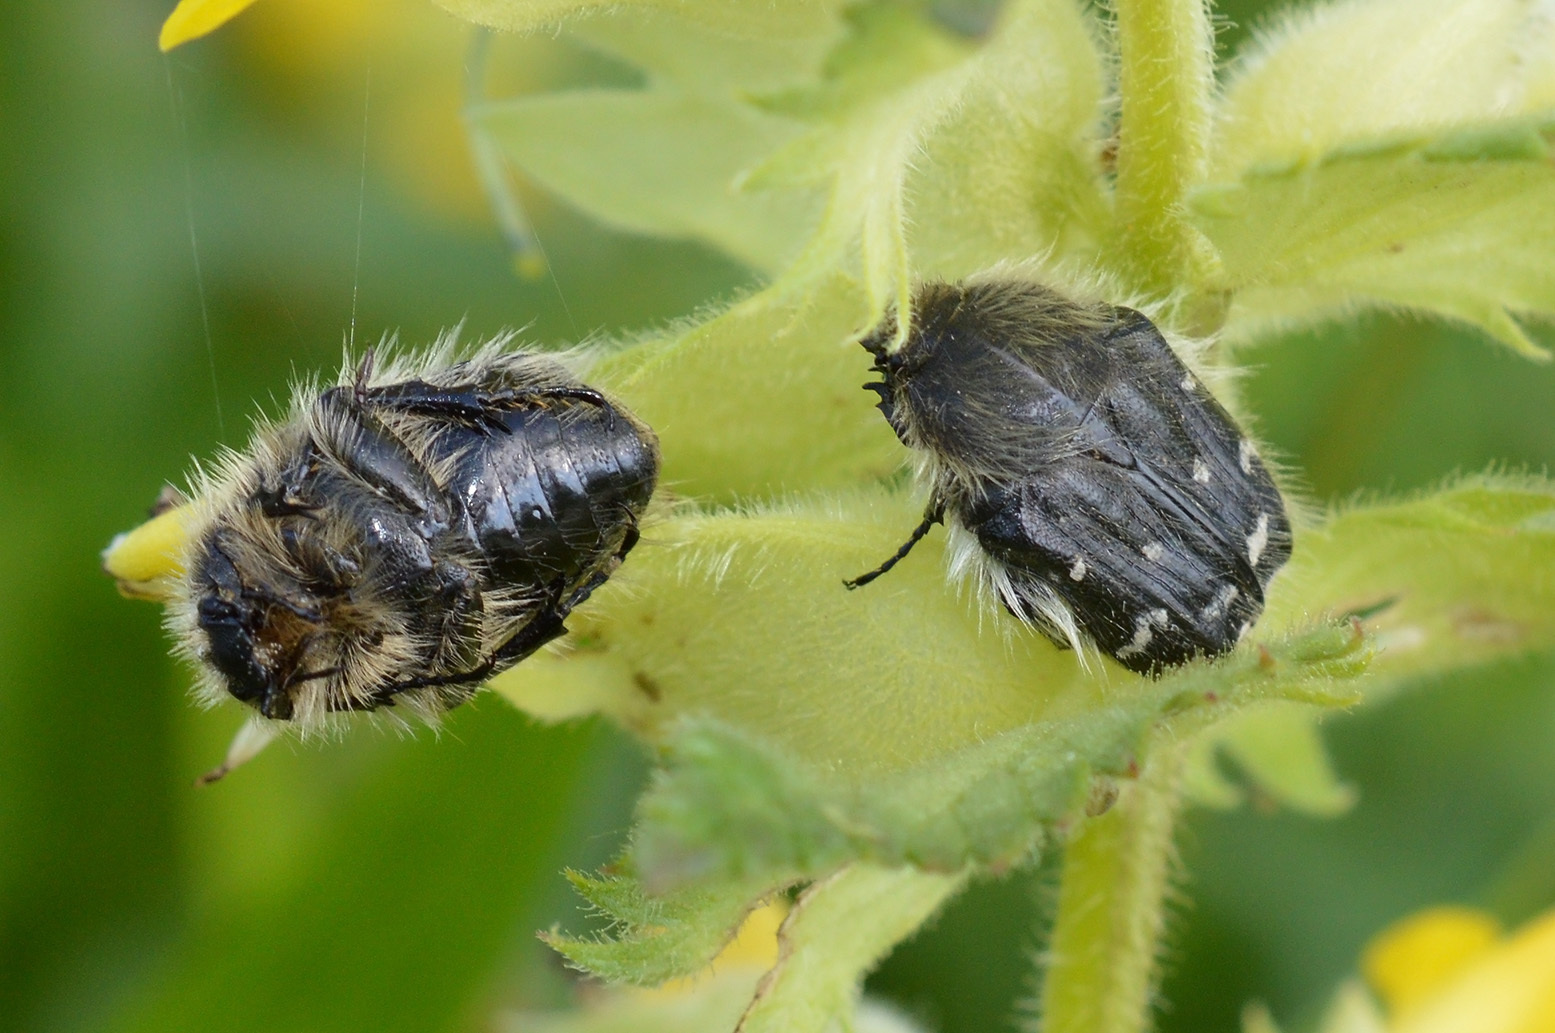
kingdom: Animalia
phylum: Arthropoda
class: Insecta
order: Coleoptera
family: Scarabaeidae
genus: Tropinota
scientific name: Tropinota hirta
